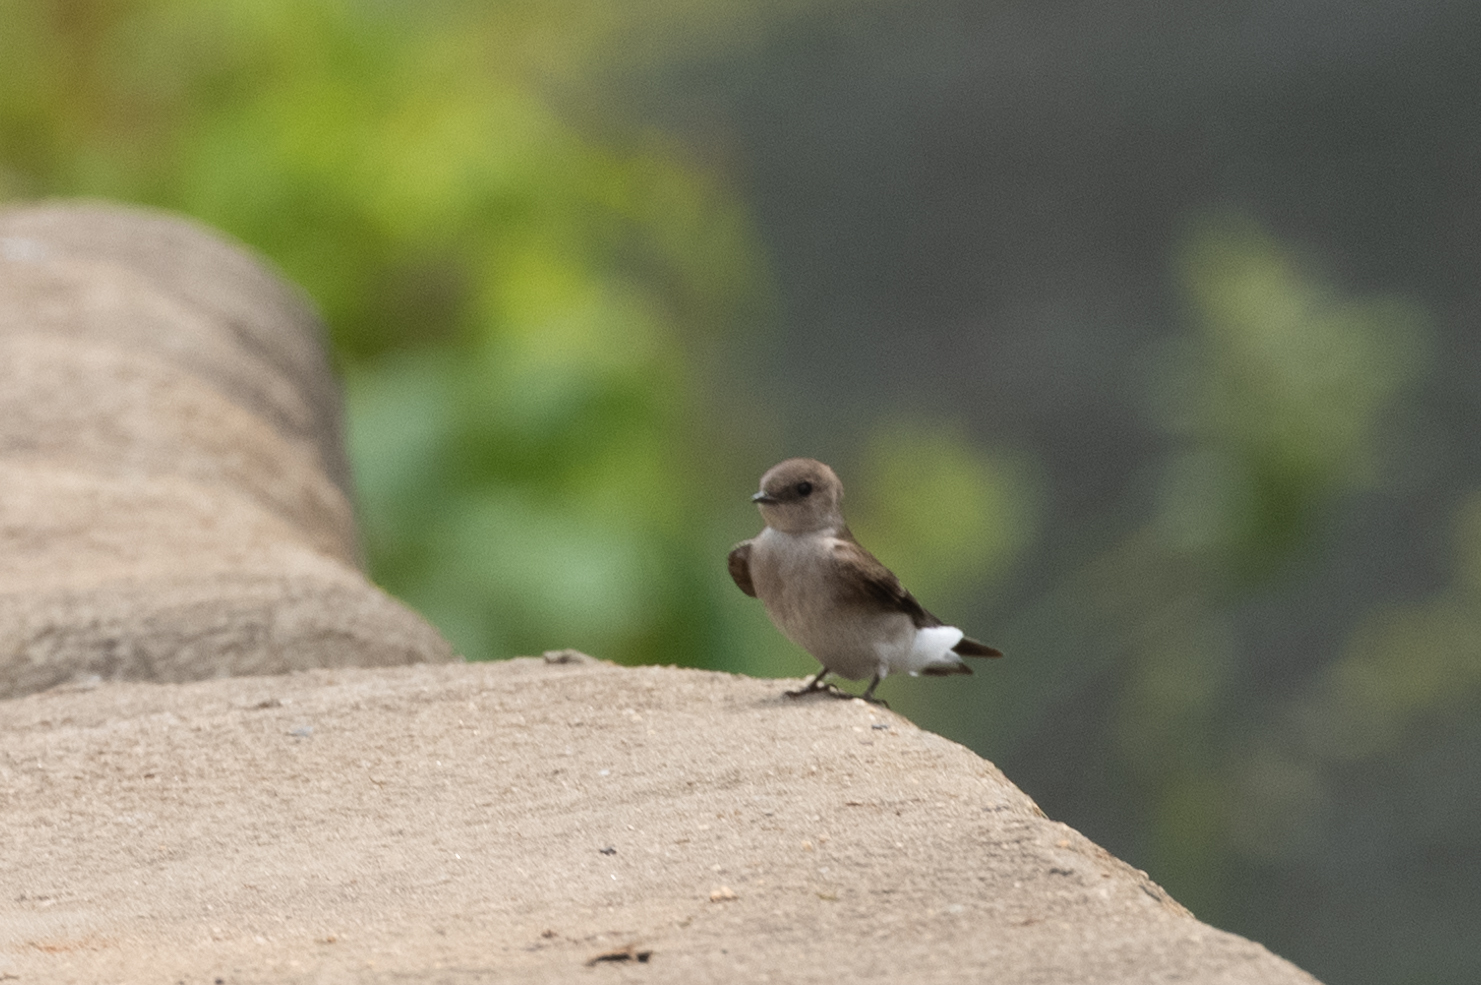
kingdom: Animalia
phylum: Chordata
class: Aves
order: Passeriformes
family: Hirundinidae
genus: Stelgidopteryx
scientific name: Stelgidopteryx serripennis
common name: Northern rough-winged swallow
